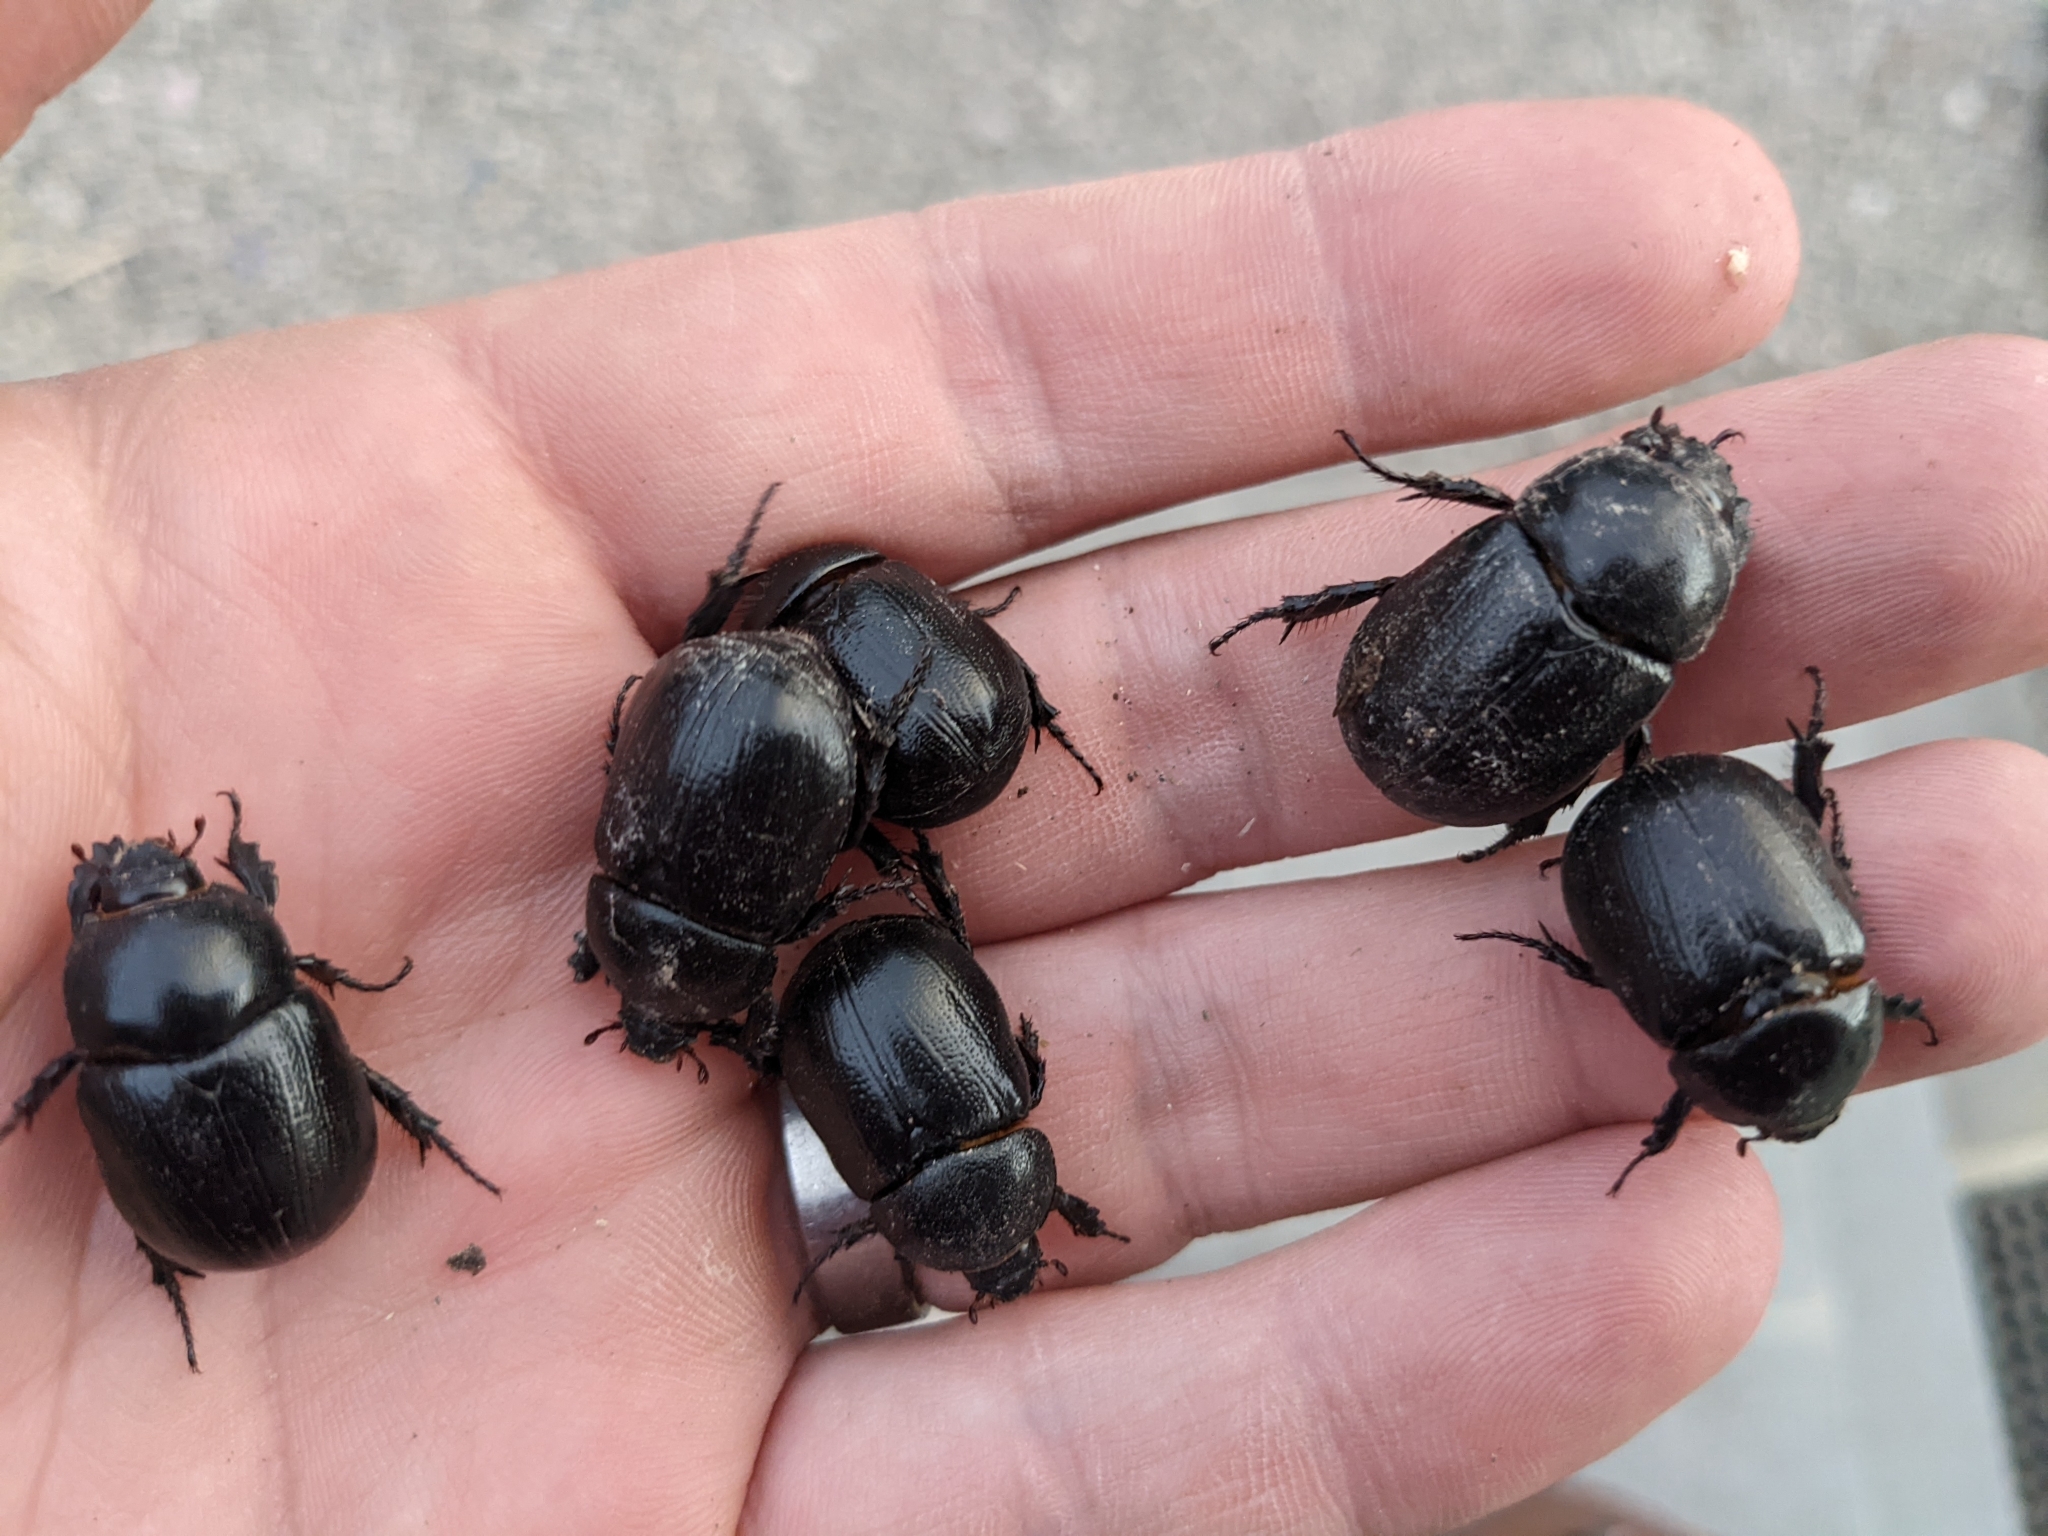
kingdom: Animalia
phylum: Arthropoda
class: Insecta
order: Coleoptera
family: Scarabaeidae
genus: Pentodon
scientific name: Pentodon bidens
